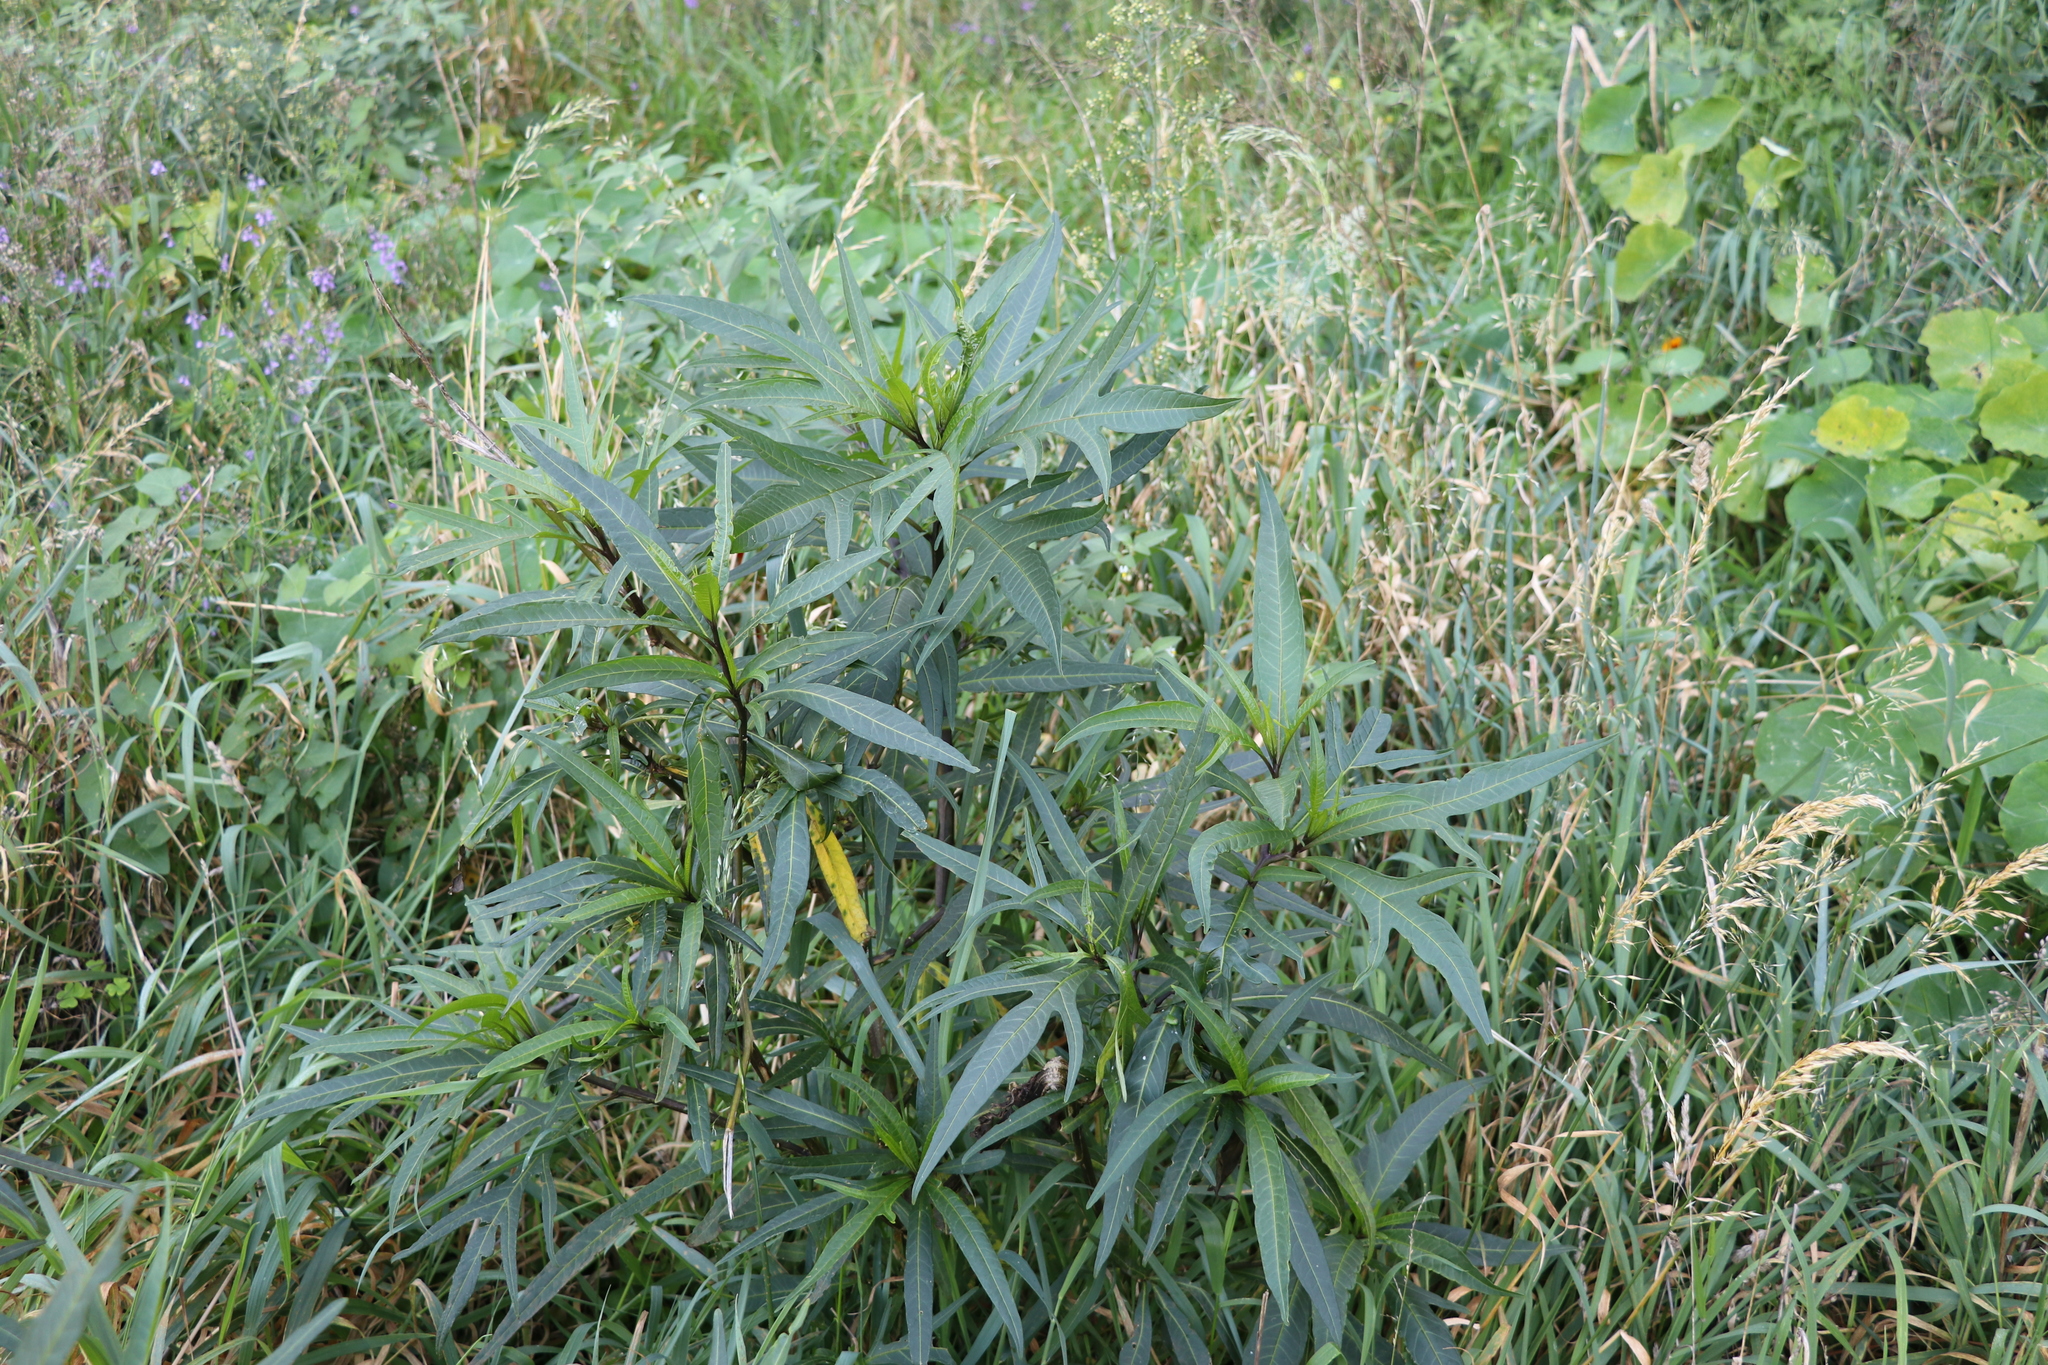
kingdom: Plantae
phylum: Tracheophyta
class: Magnoliopsida
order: Solanales
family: Solanaceae
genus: Solanum
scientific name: Solanum
